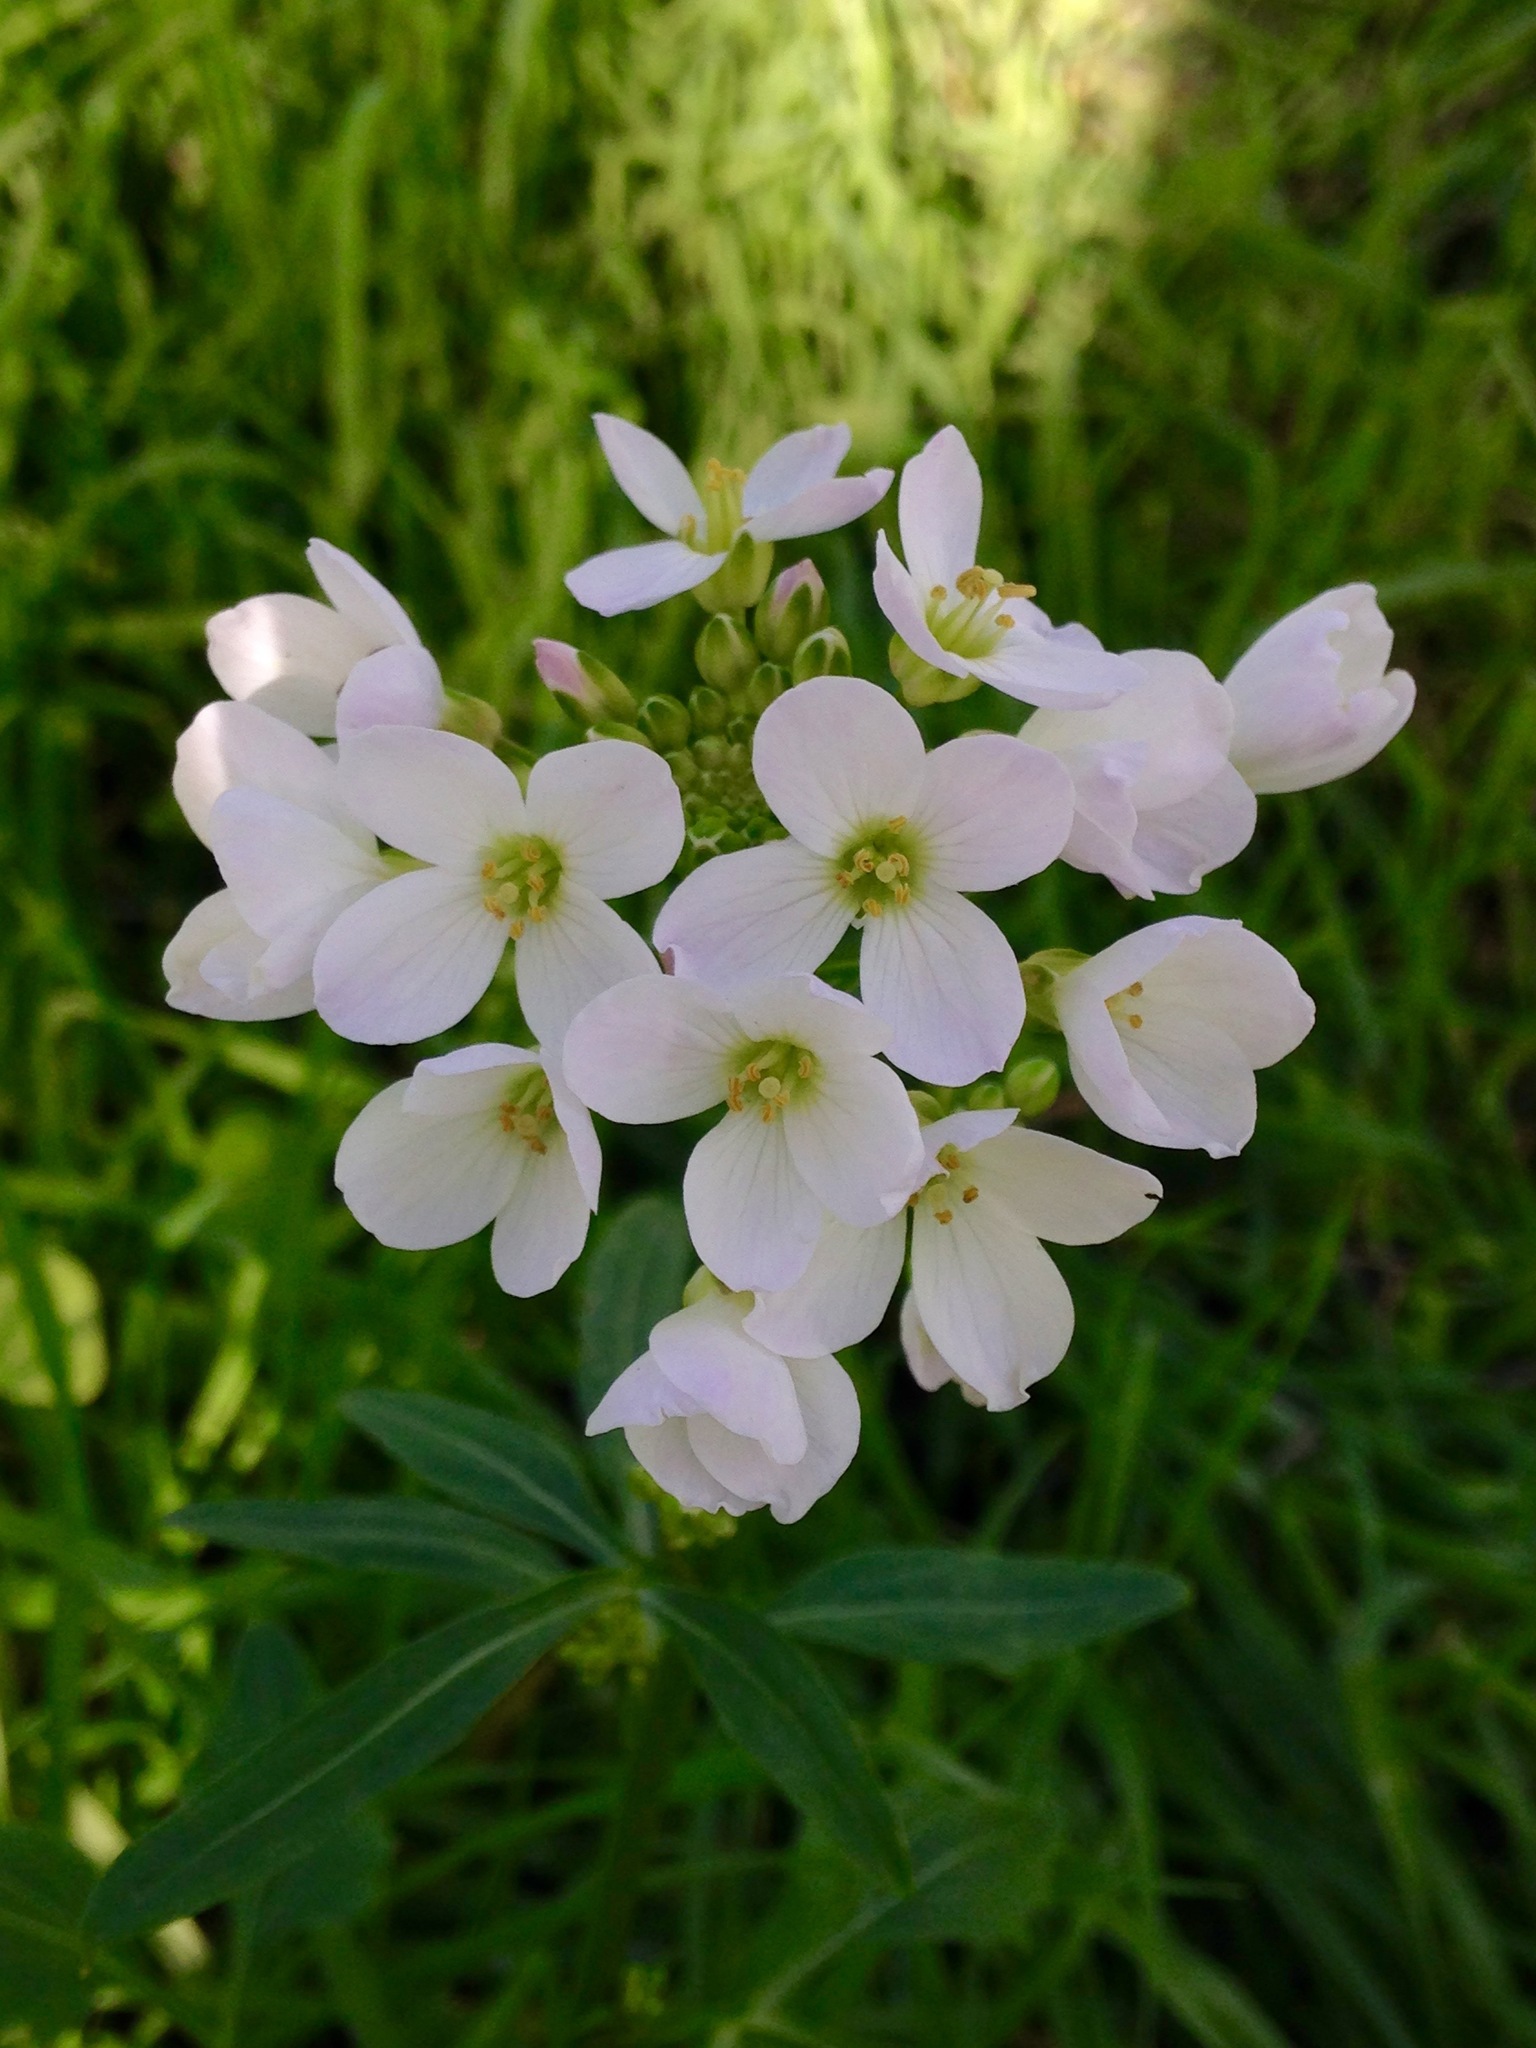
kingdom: Plantae
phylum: Tracheophyta
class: Magnoliopsida
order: Brassicales
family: Brassicaceae
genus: Cardamine
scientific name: Cardamine californica
